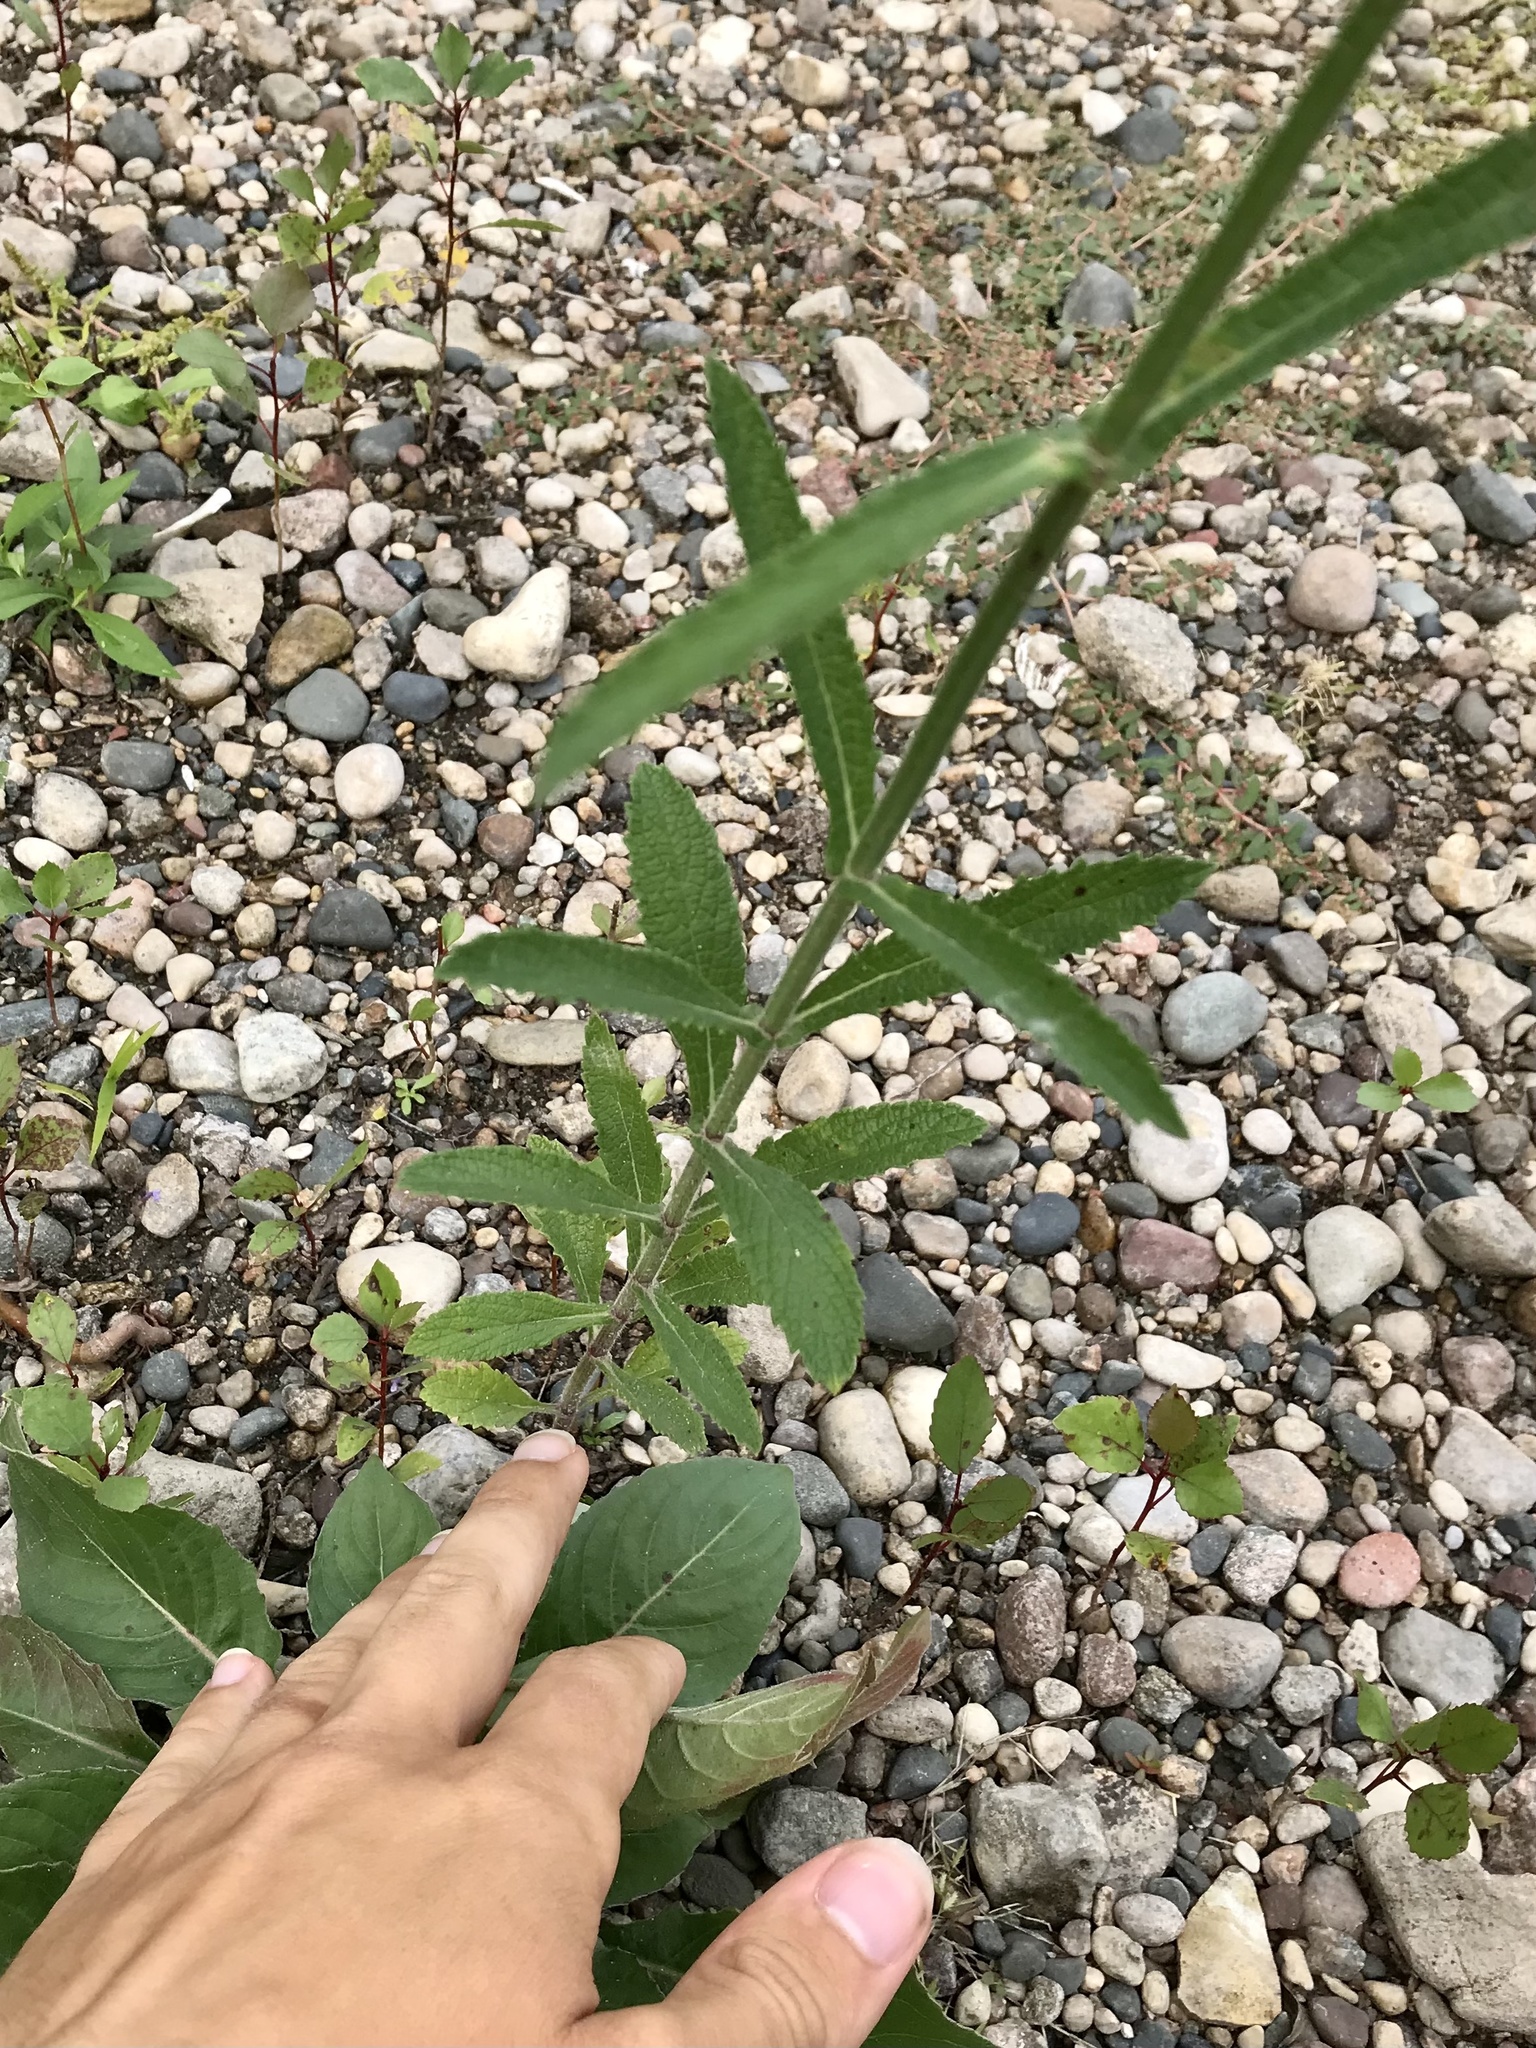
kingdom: Plantae
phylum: Tracheophyta
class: Magnoliopsida
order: Lamiales
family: Verbenaceae
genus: Verbena
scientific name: Verbena bonariensis
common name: Purpletop vervain
